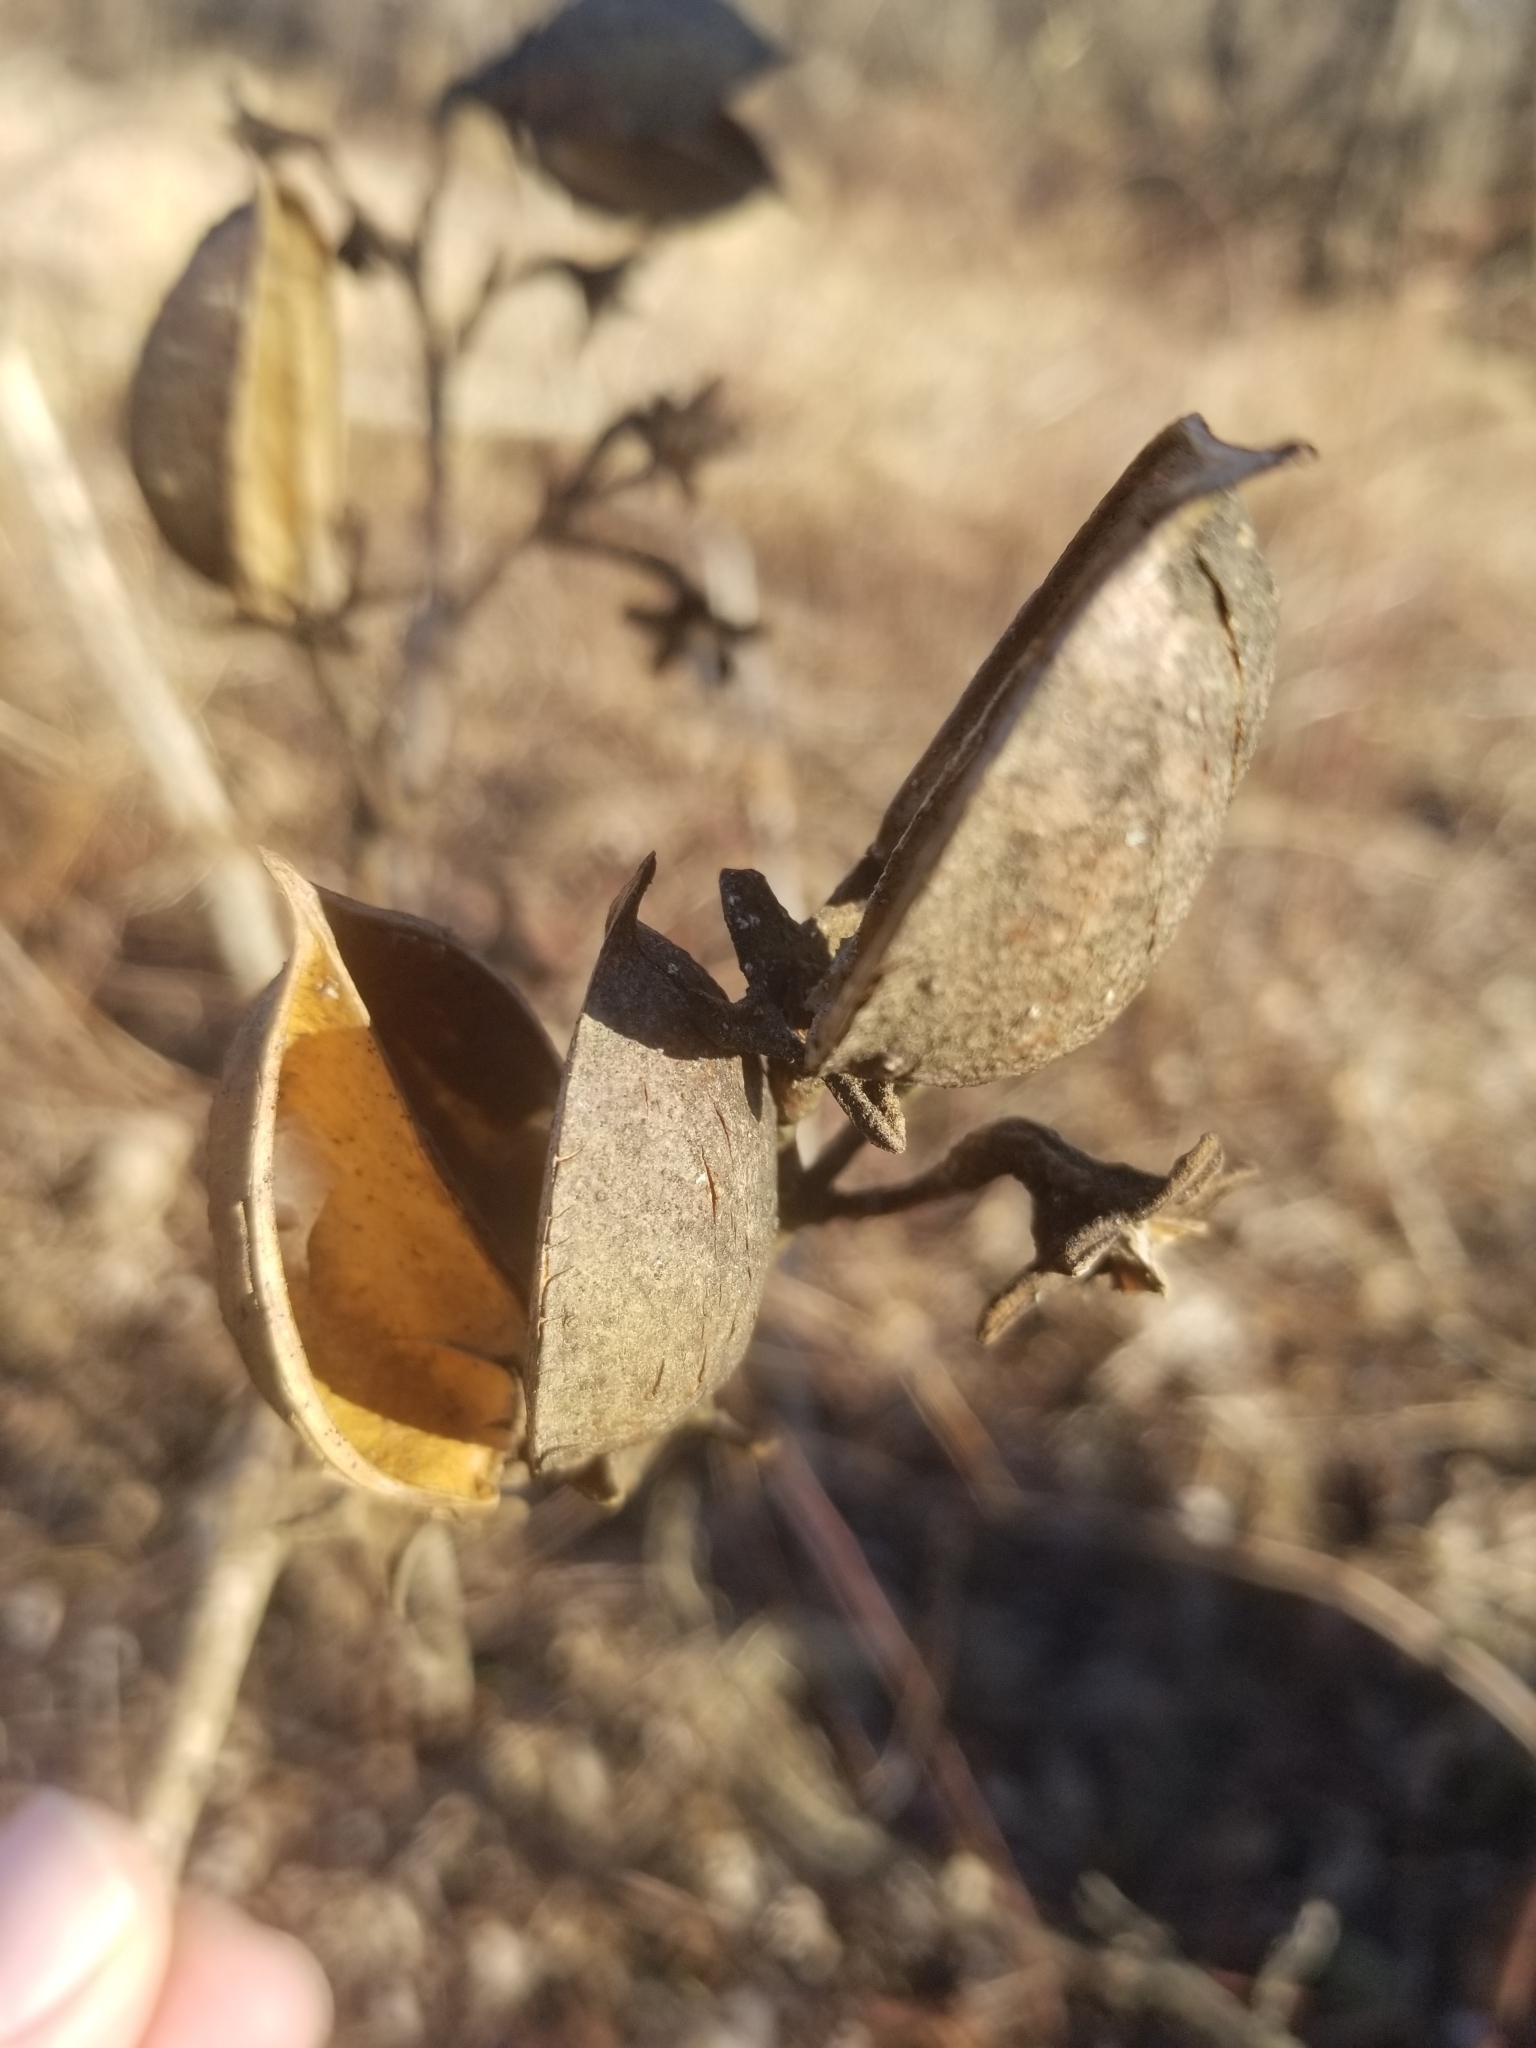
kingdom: Plantae
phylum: Tracheophyta
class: Magnoliopsida
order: Lamiales
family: Paulowniaceae
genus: Paulownia
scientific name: Paulownia tomentosa
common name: Foxglove-tree
